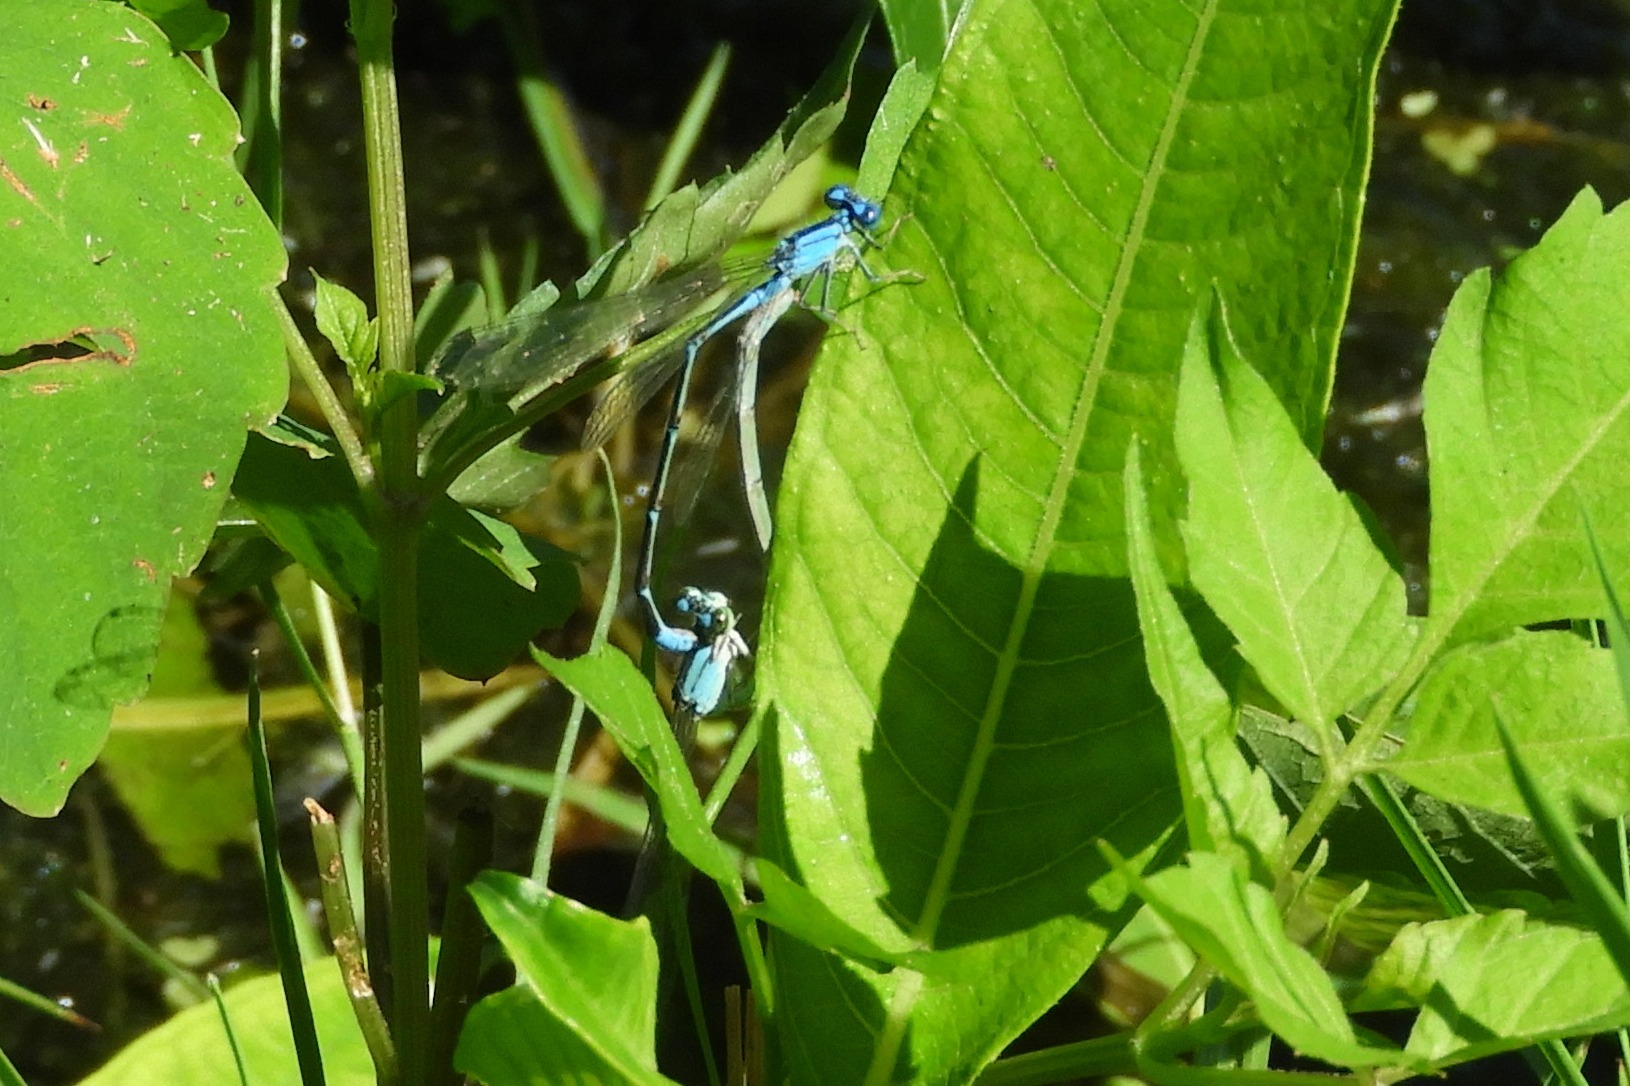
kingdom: Animalia
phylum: Arthropoda
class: Insecta
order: Odonata
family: Coenagrionidae
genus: Enallagma
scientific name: Enallagma traviatum
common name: Slender bluet
